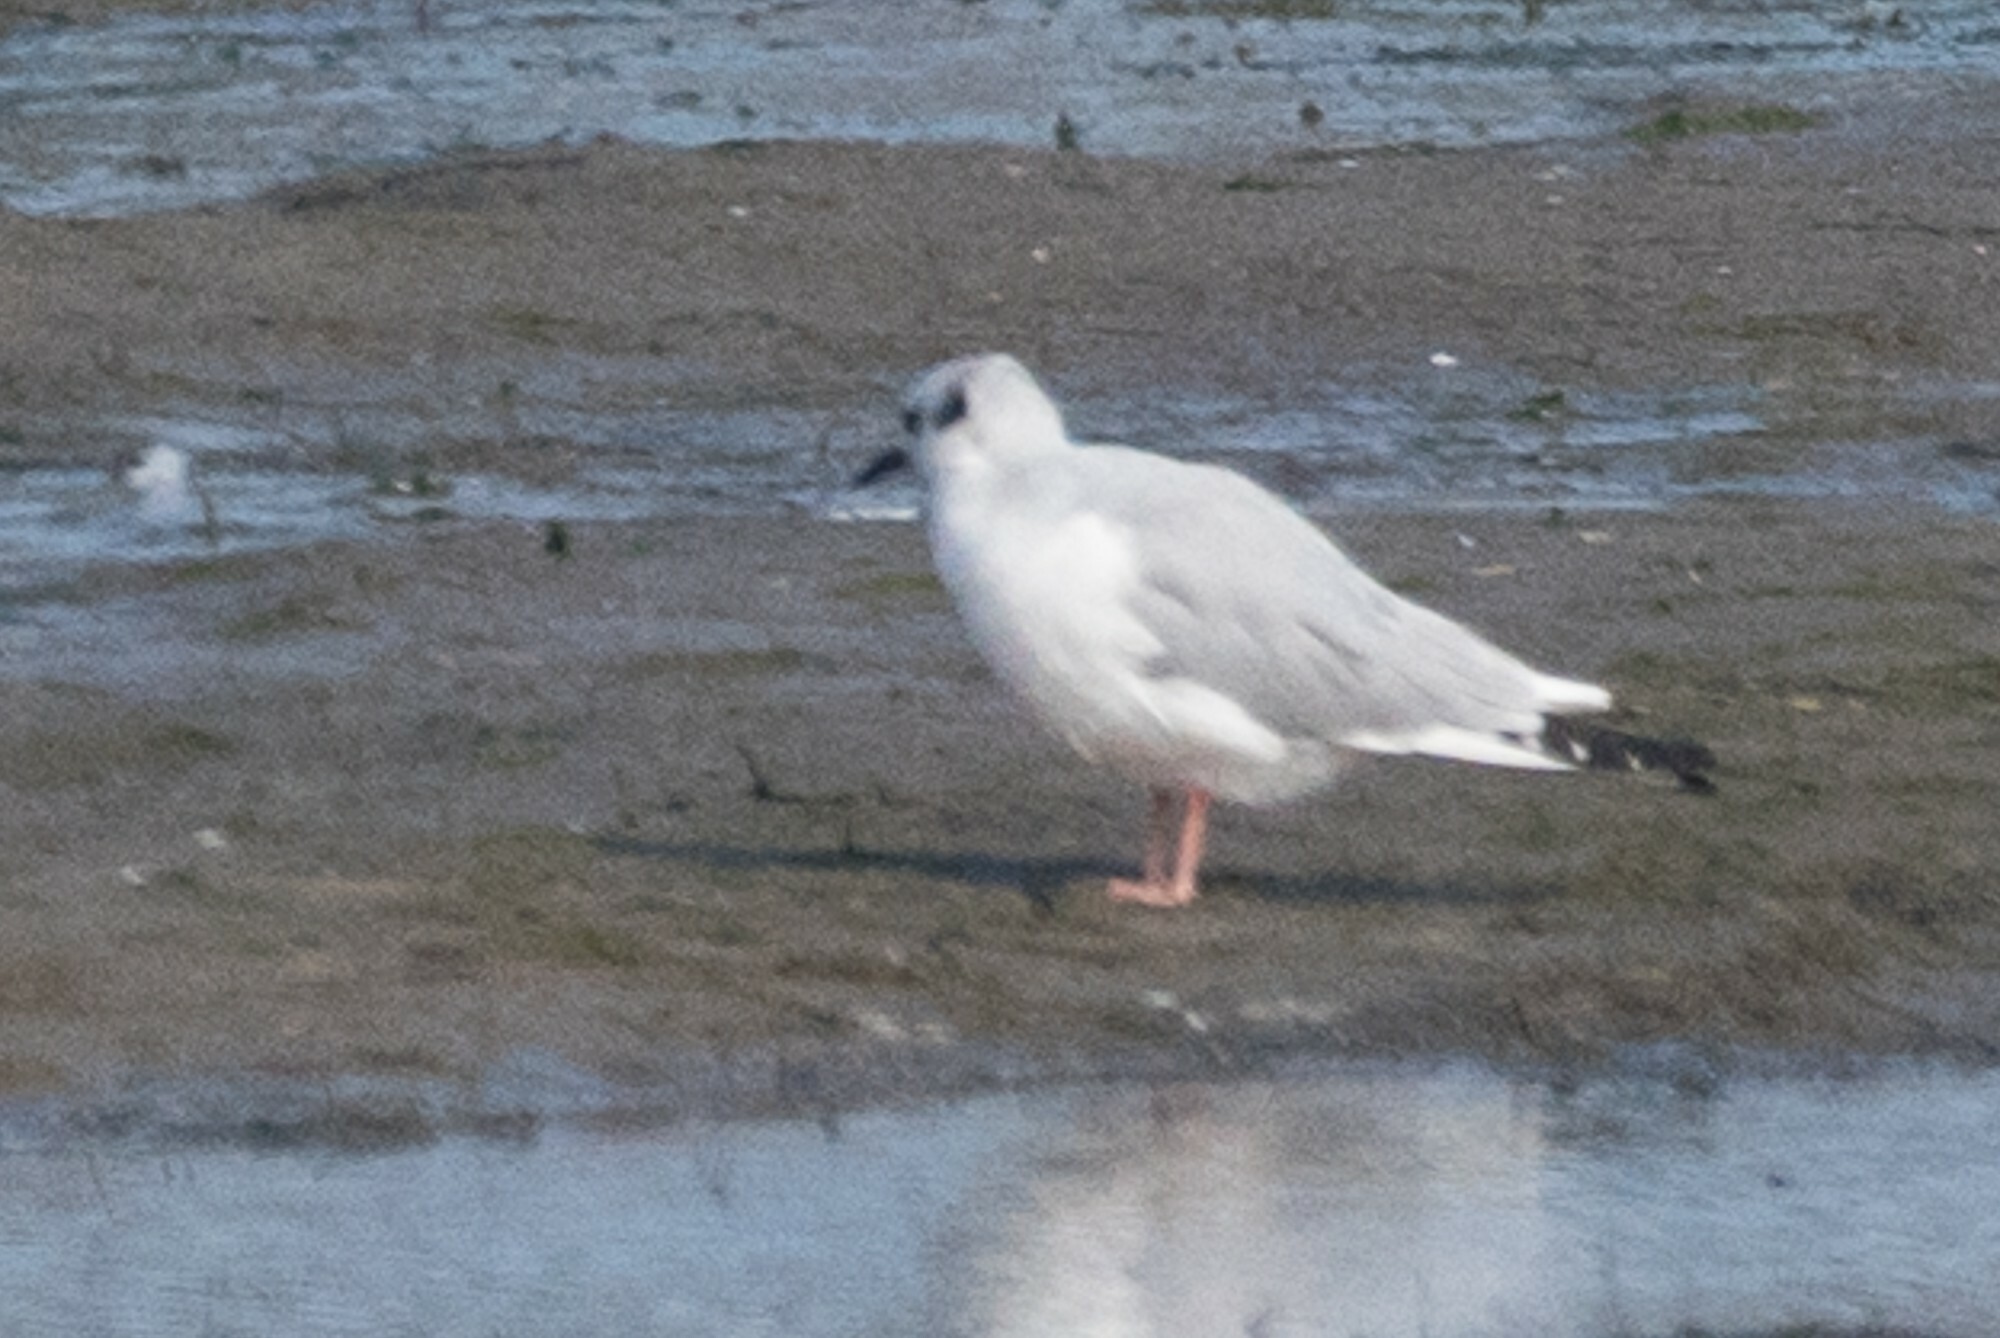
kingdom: Animalia
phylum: Chordata
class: Aves
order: Charadriiformes
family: Laridae
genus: Chroicocephalus
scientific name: Chroicocephalus philadelphia
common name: Bonaparte's gull
